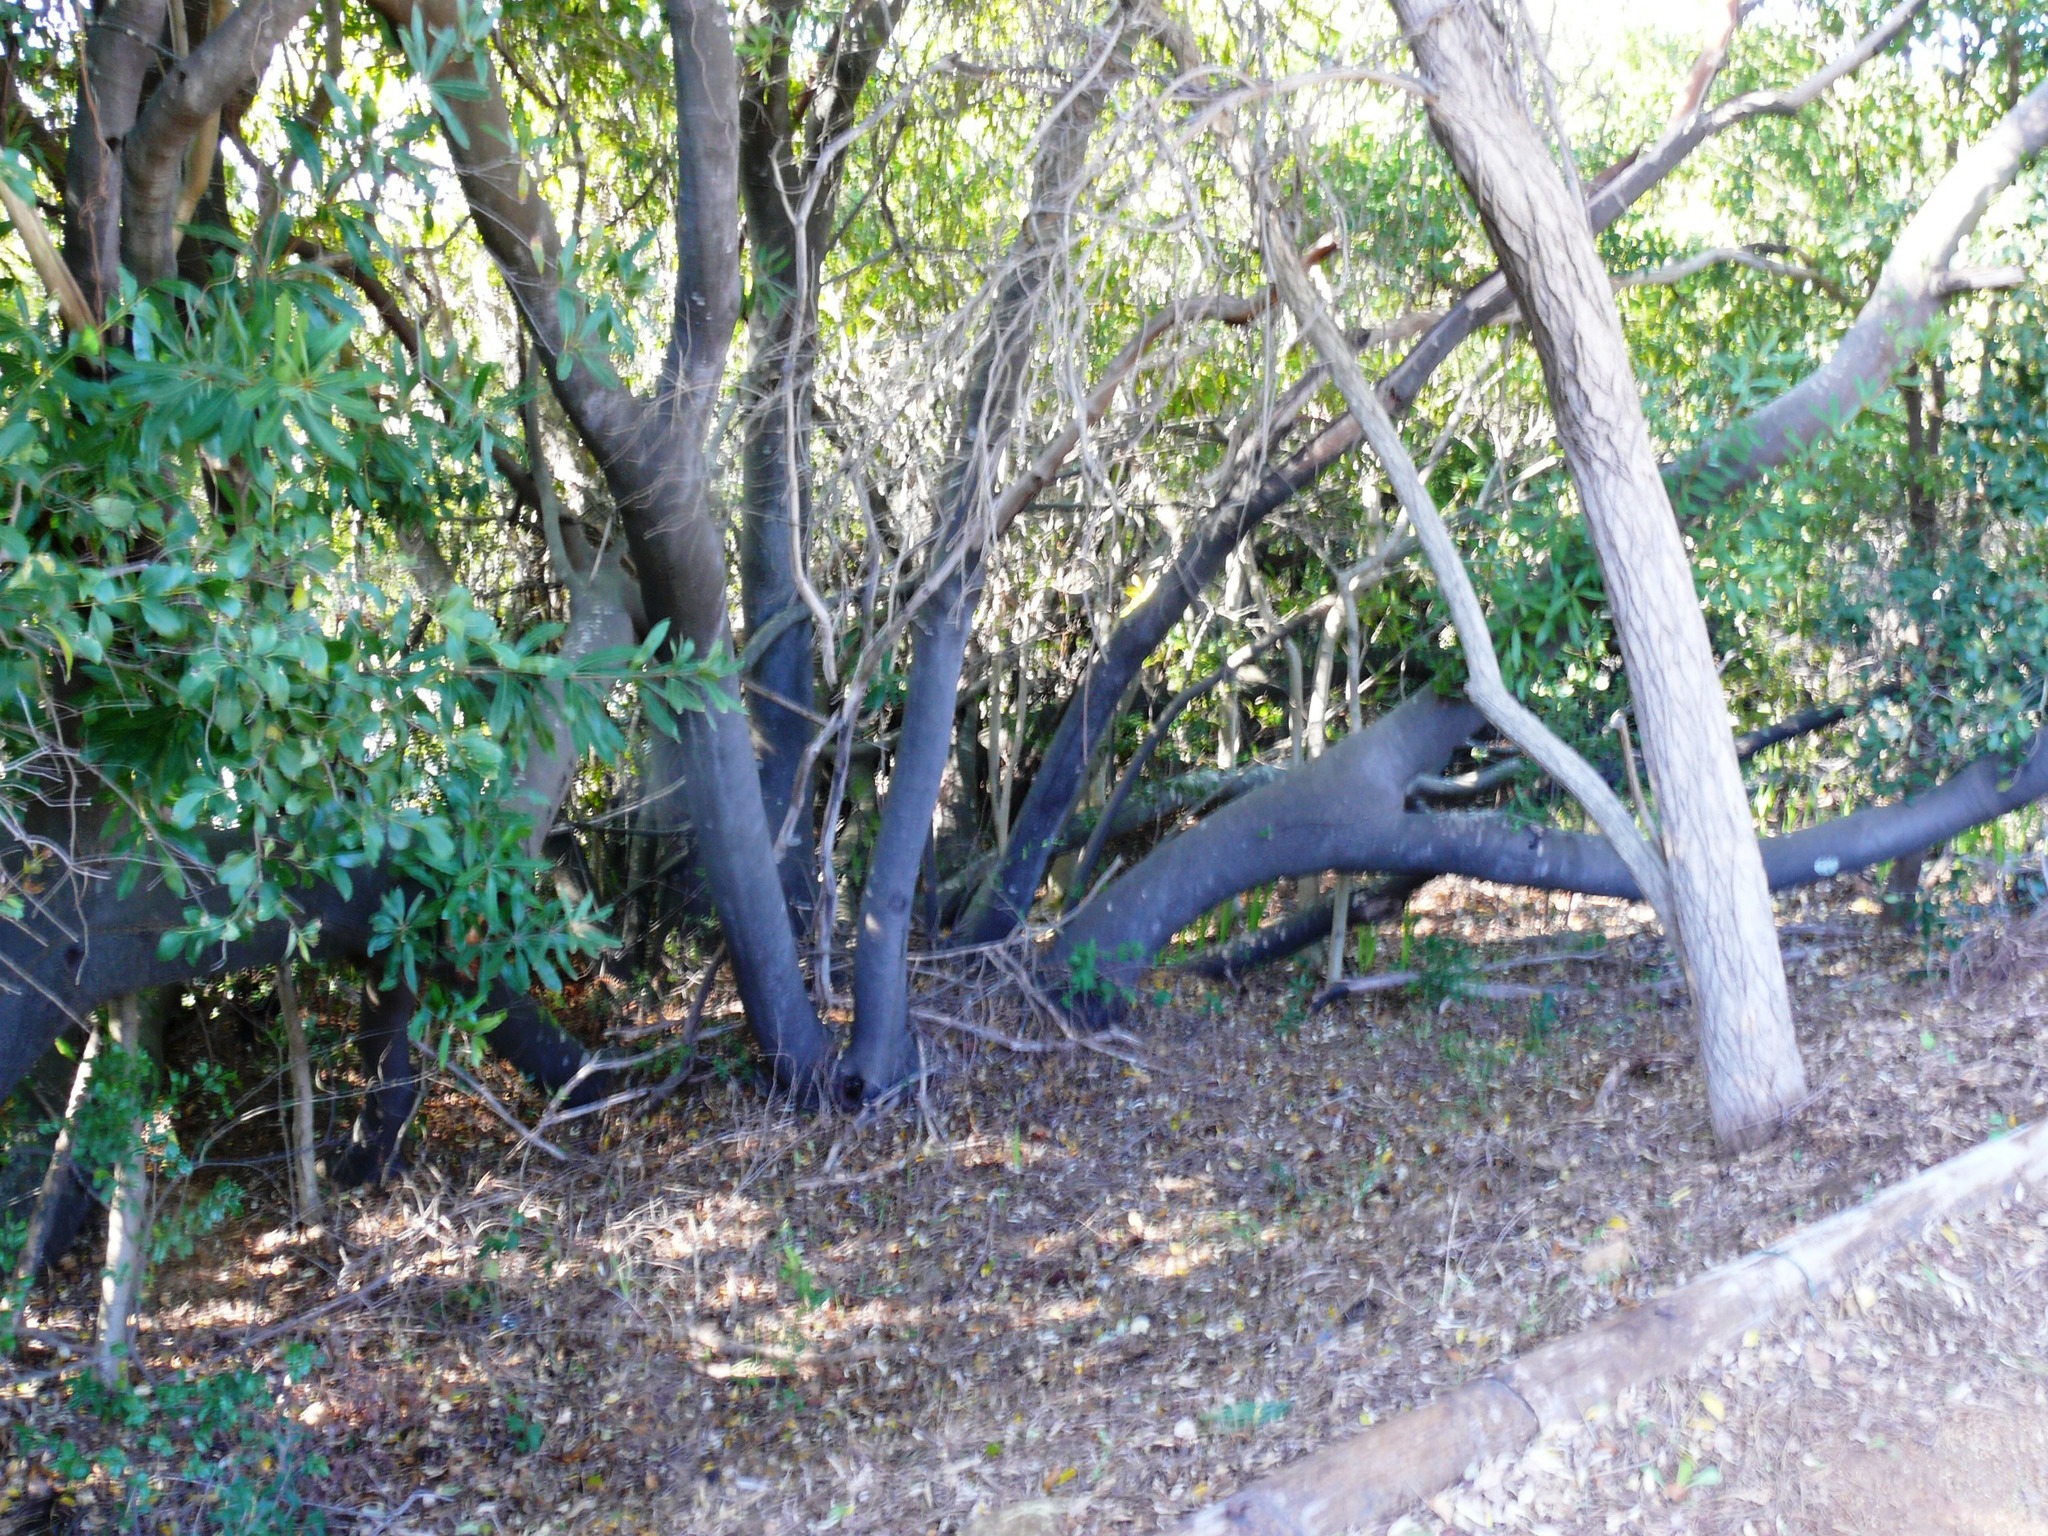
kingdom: Plantae
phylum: Tracheophyta
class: Magnoliopsida
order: Proteales
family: Proteaceae
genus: Brabejum
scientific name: Brabejum stellatifolium
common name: Wild almond
